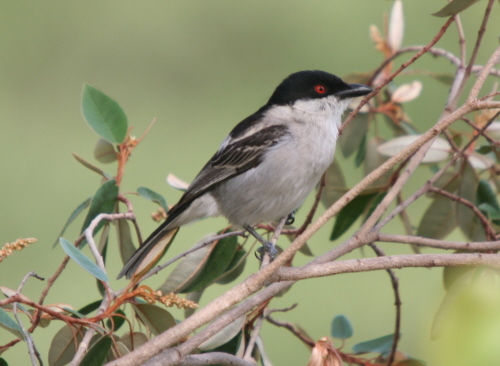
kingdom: Animalia
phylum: Chordata
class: Aves
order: Passeriformes
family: Malaconotidae
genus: Dryoscopus
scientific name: Dryoscopus cubla
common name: Black-backed puffback
